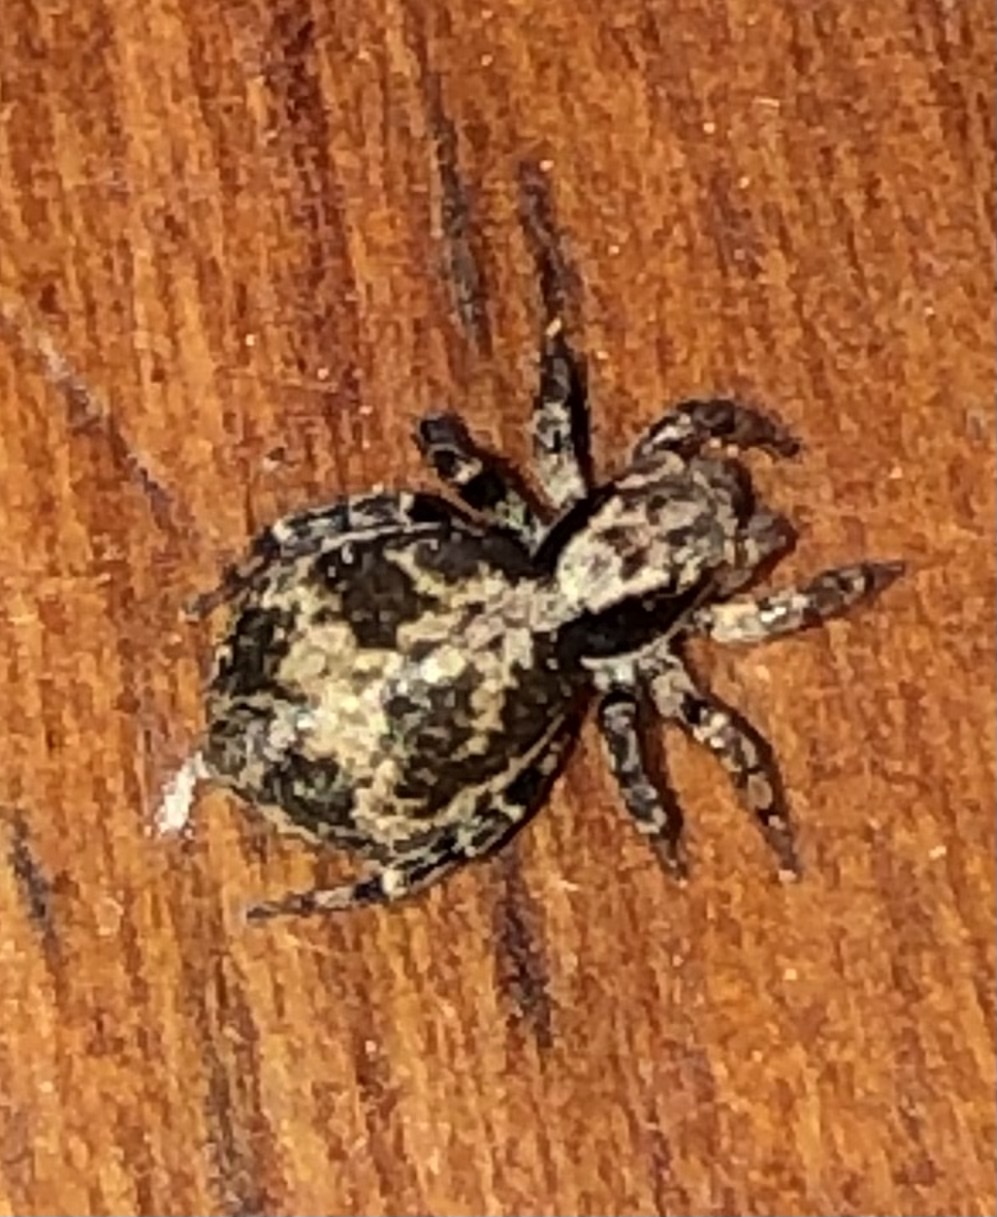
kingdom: Animalia
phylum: Arthropoda
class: Arachnida
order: Araneae
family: Salticidae
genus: Naphrys
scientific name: Naphrys pulex
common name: Flea jumping spider
